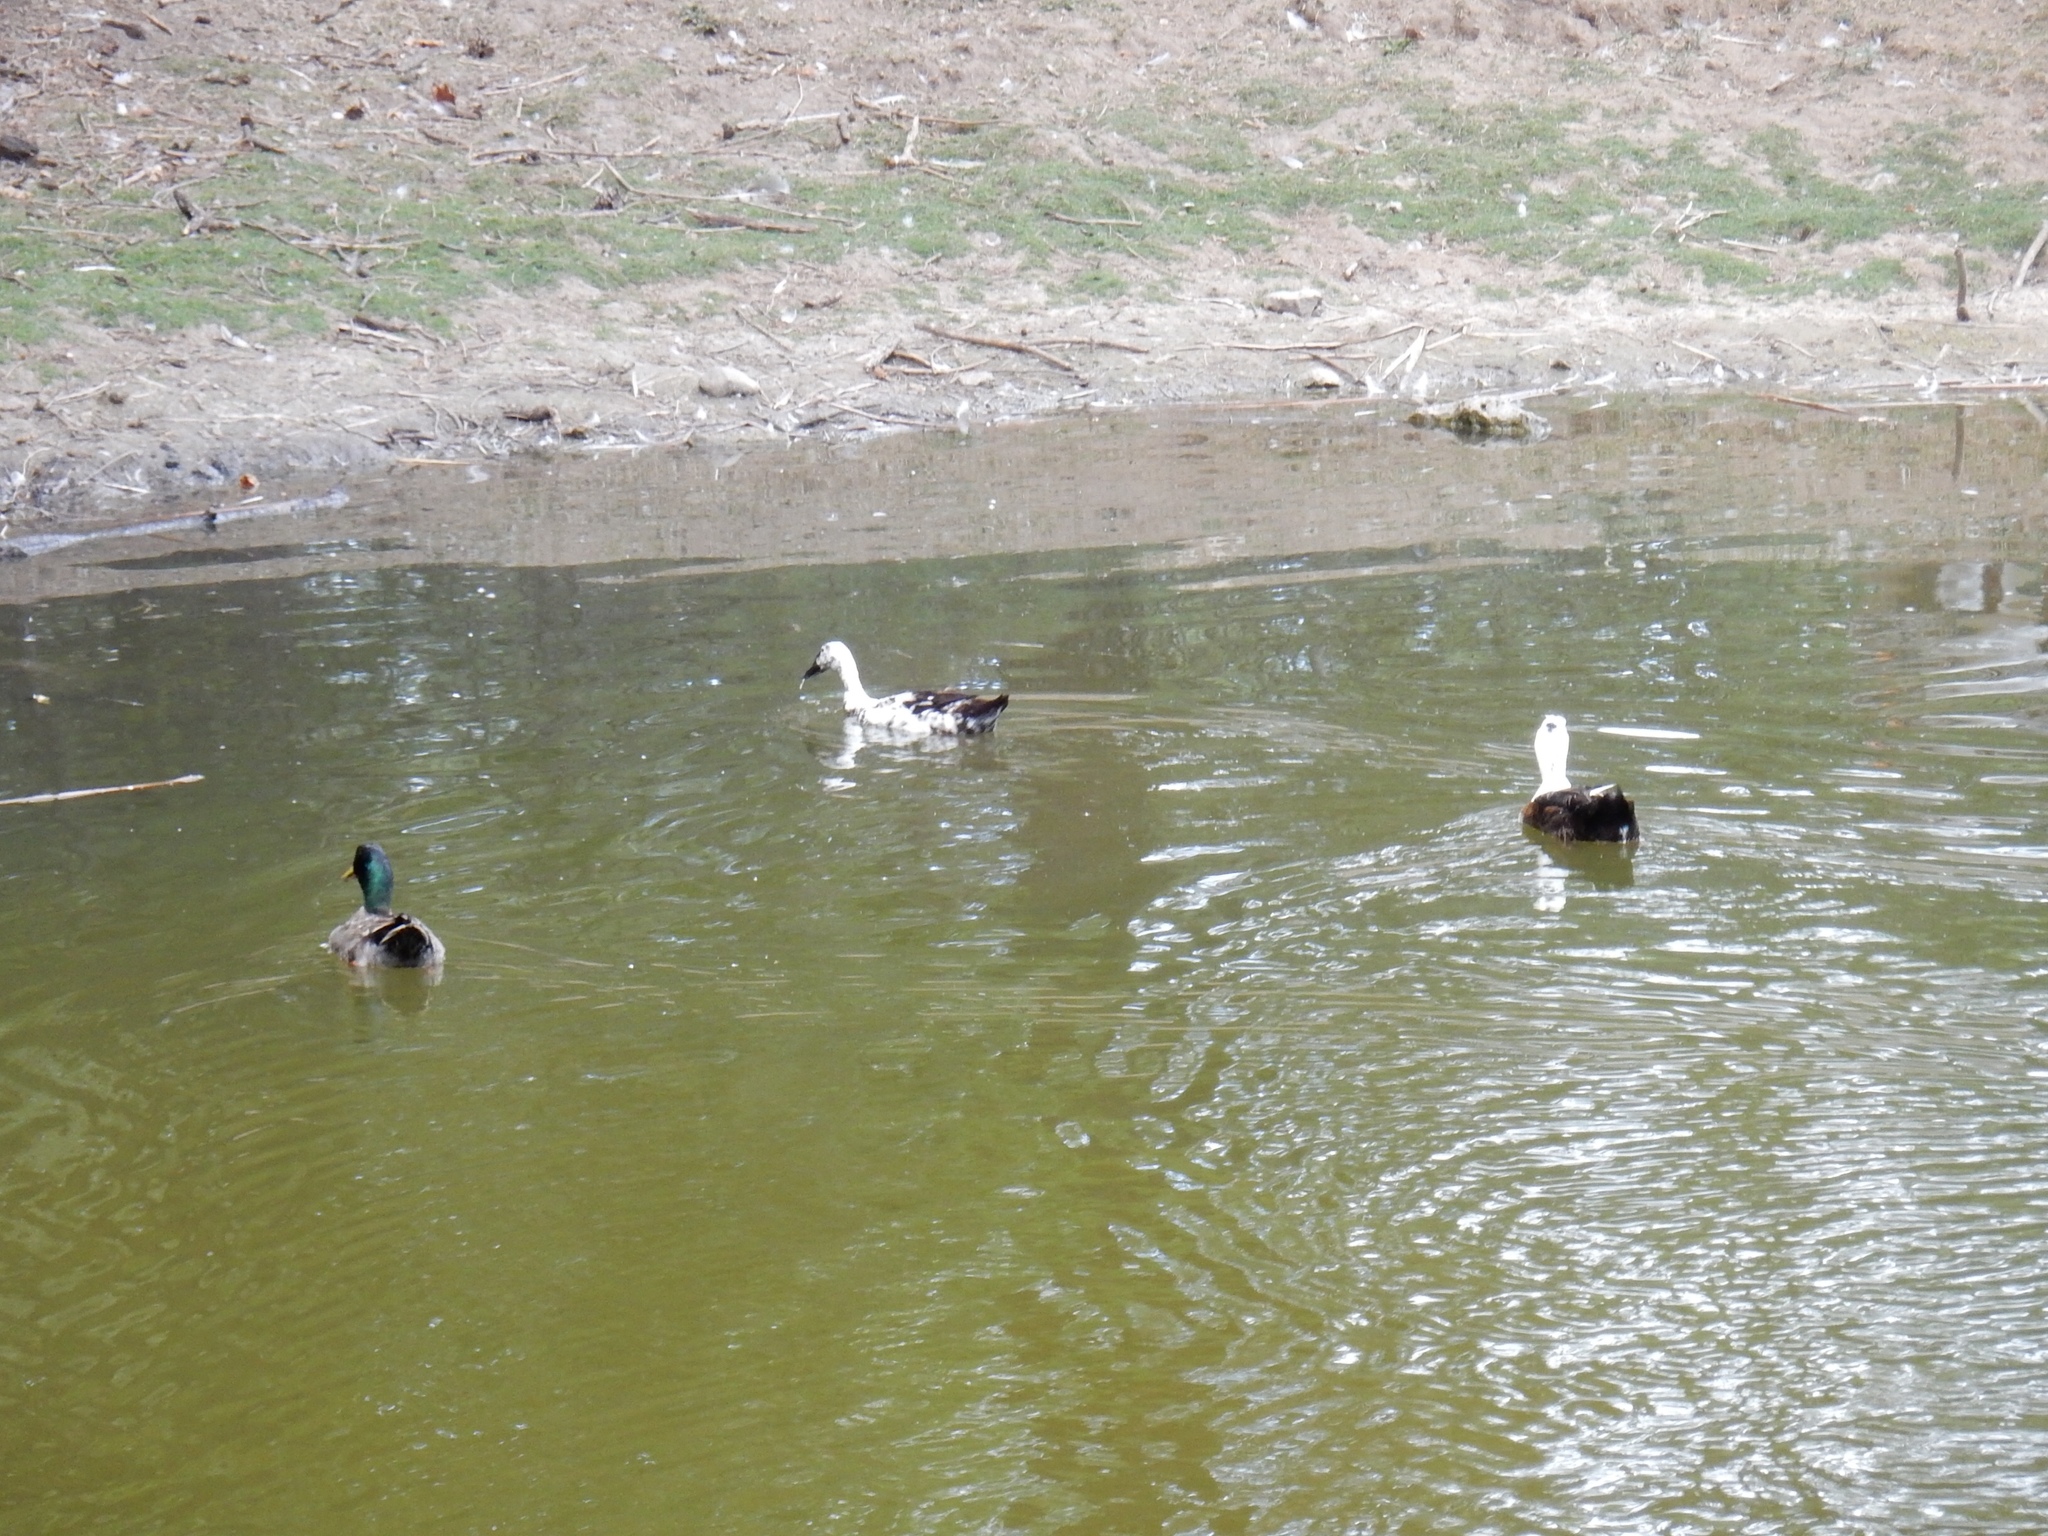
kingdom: Animalia
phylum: Chordata
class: Aves
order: Anseriformes
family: Anatidae
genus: Anas
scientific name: Anas platyrhynchos
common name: Mallard
